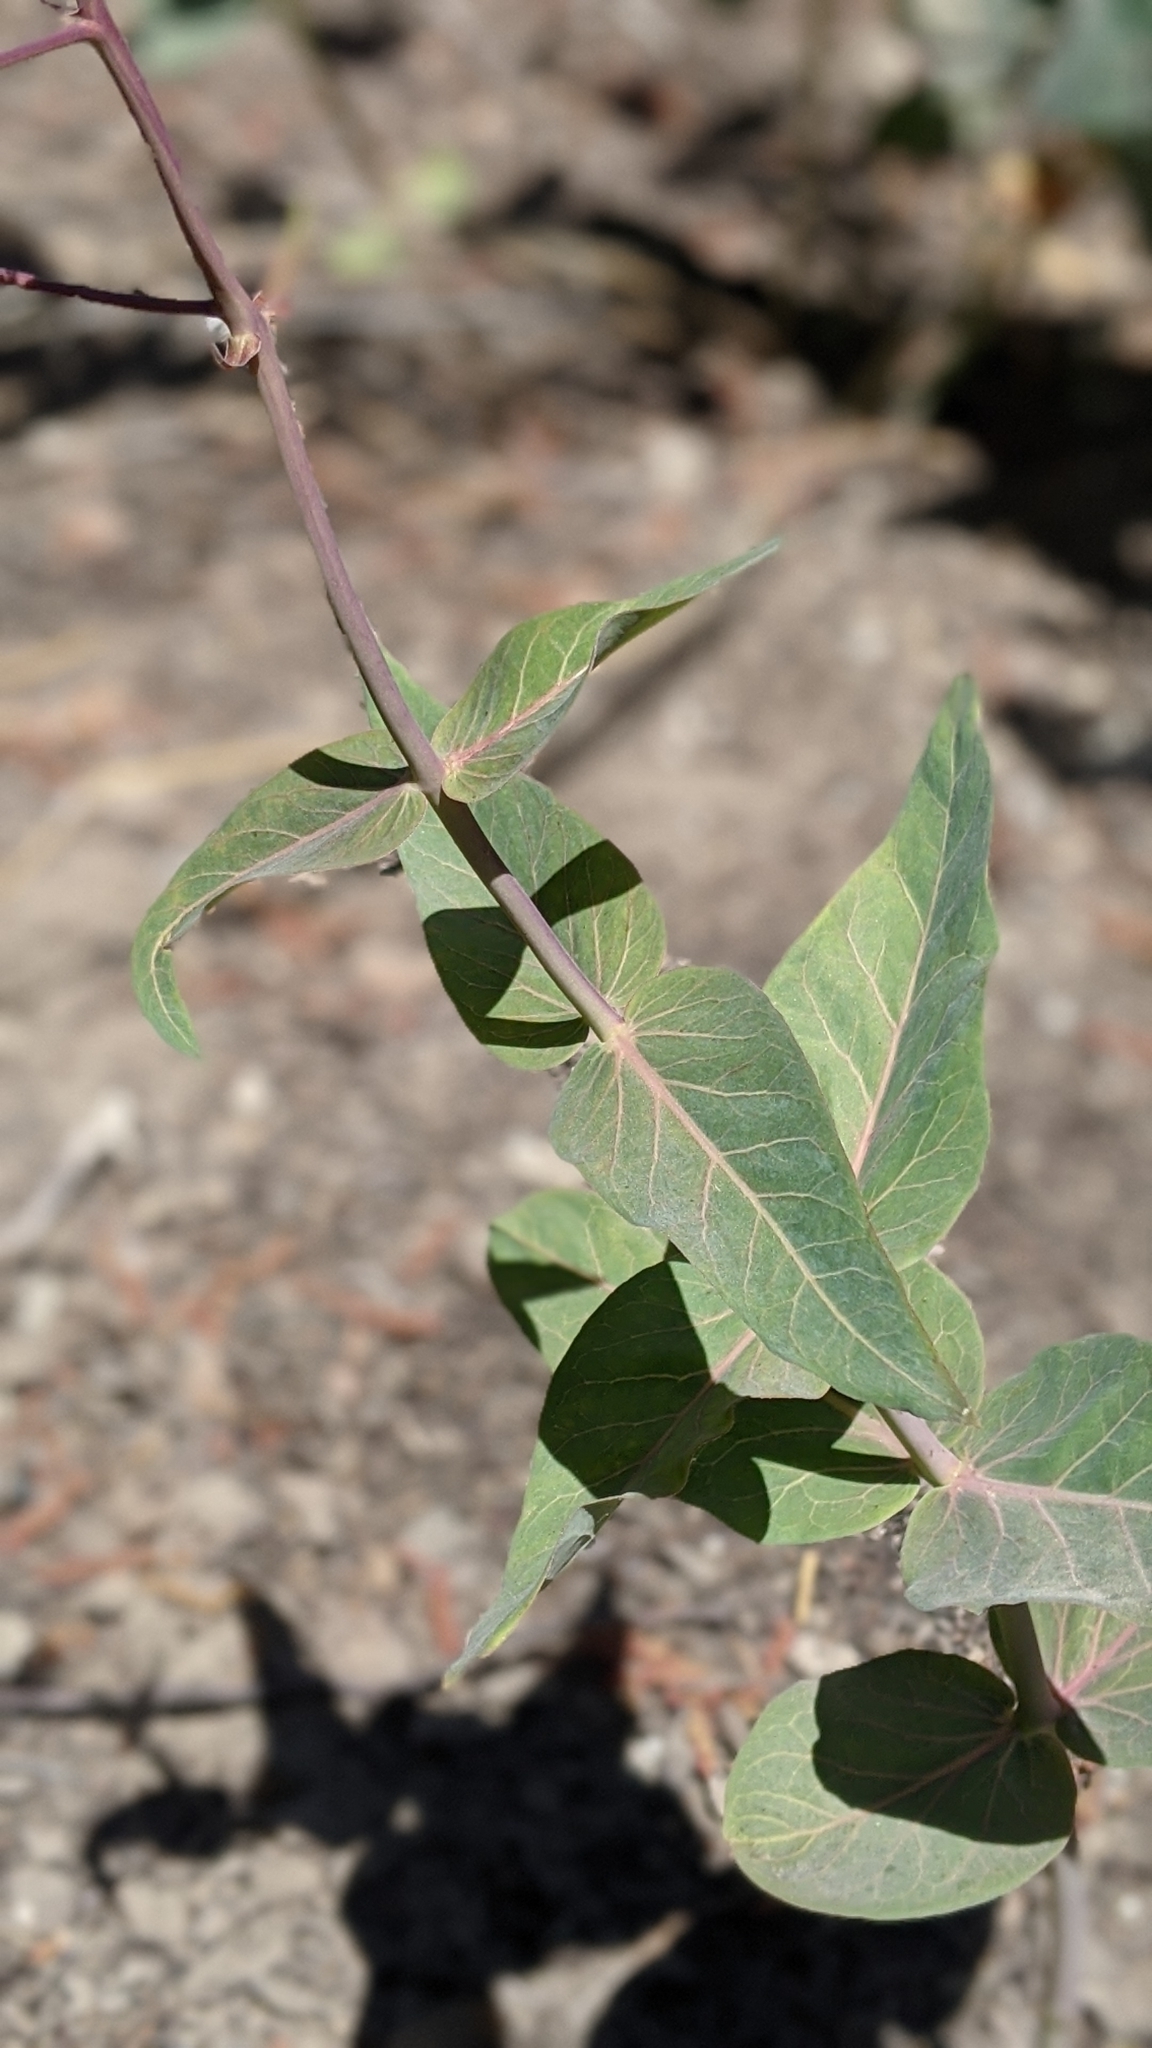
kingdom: Plantae
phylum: Tracheophyta
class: Magnoliopsida
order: Gentianales
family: Apocynaceae
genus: Asclepias
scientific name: Asclepias cordifolia
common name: Purple milkweed
